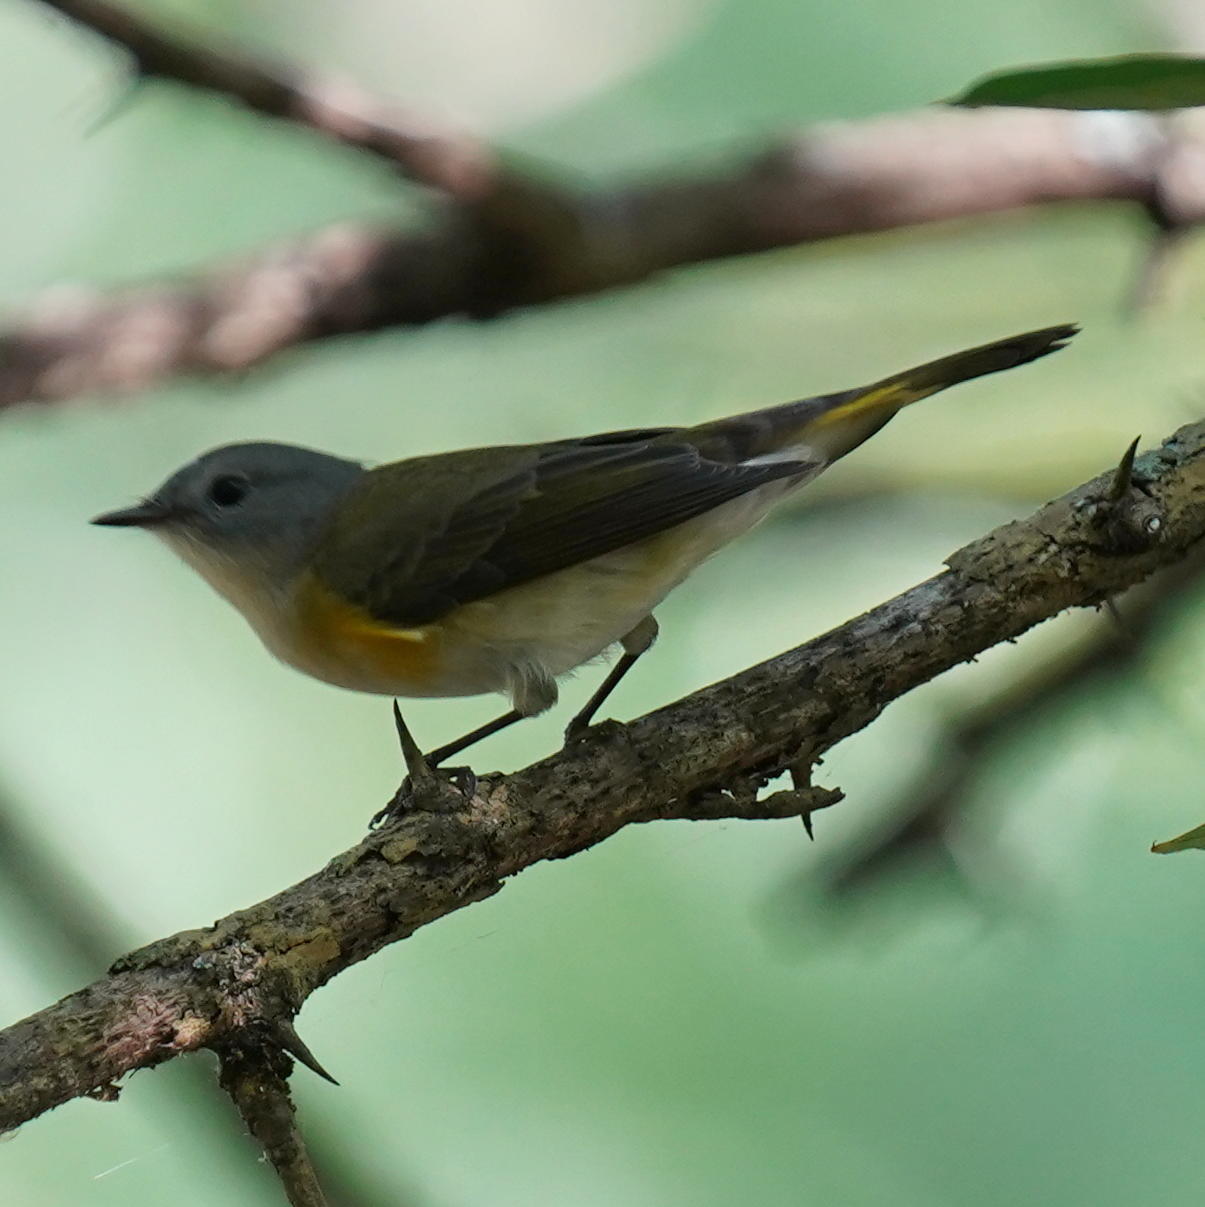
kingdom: Animalia
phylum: Chordata
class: Aves
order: Passeriformes
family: Parulidae
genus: Setophaga
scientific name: Setophaga ruticilla
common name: American redstart
